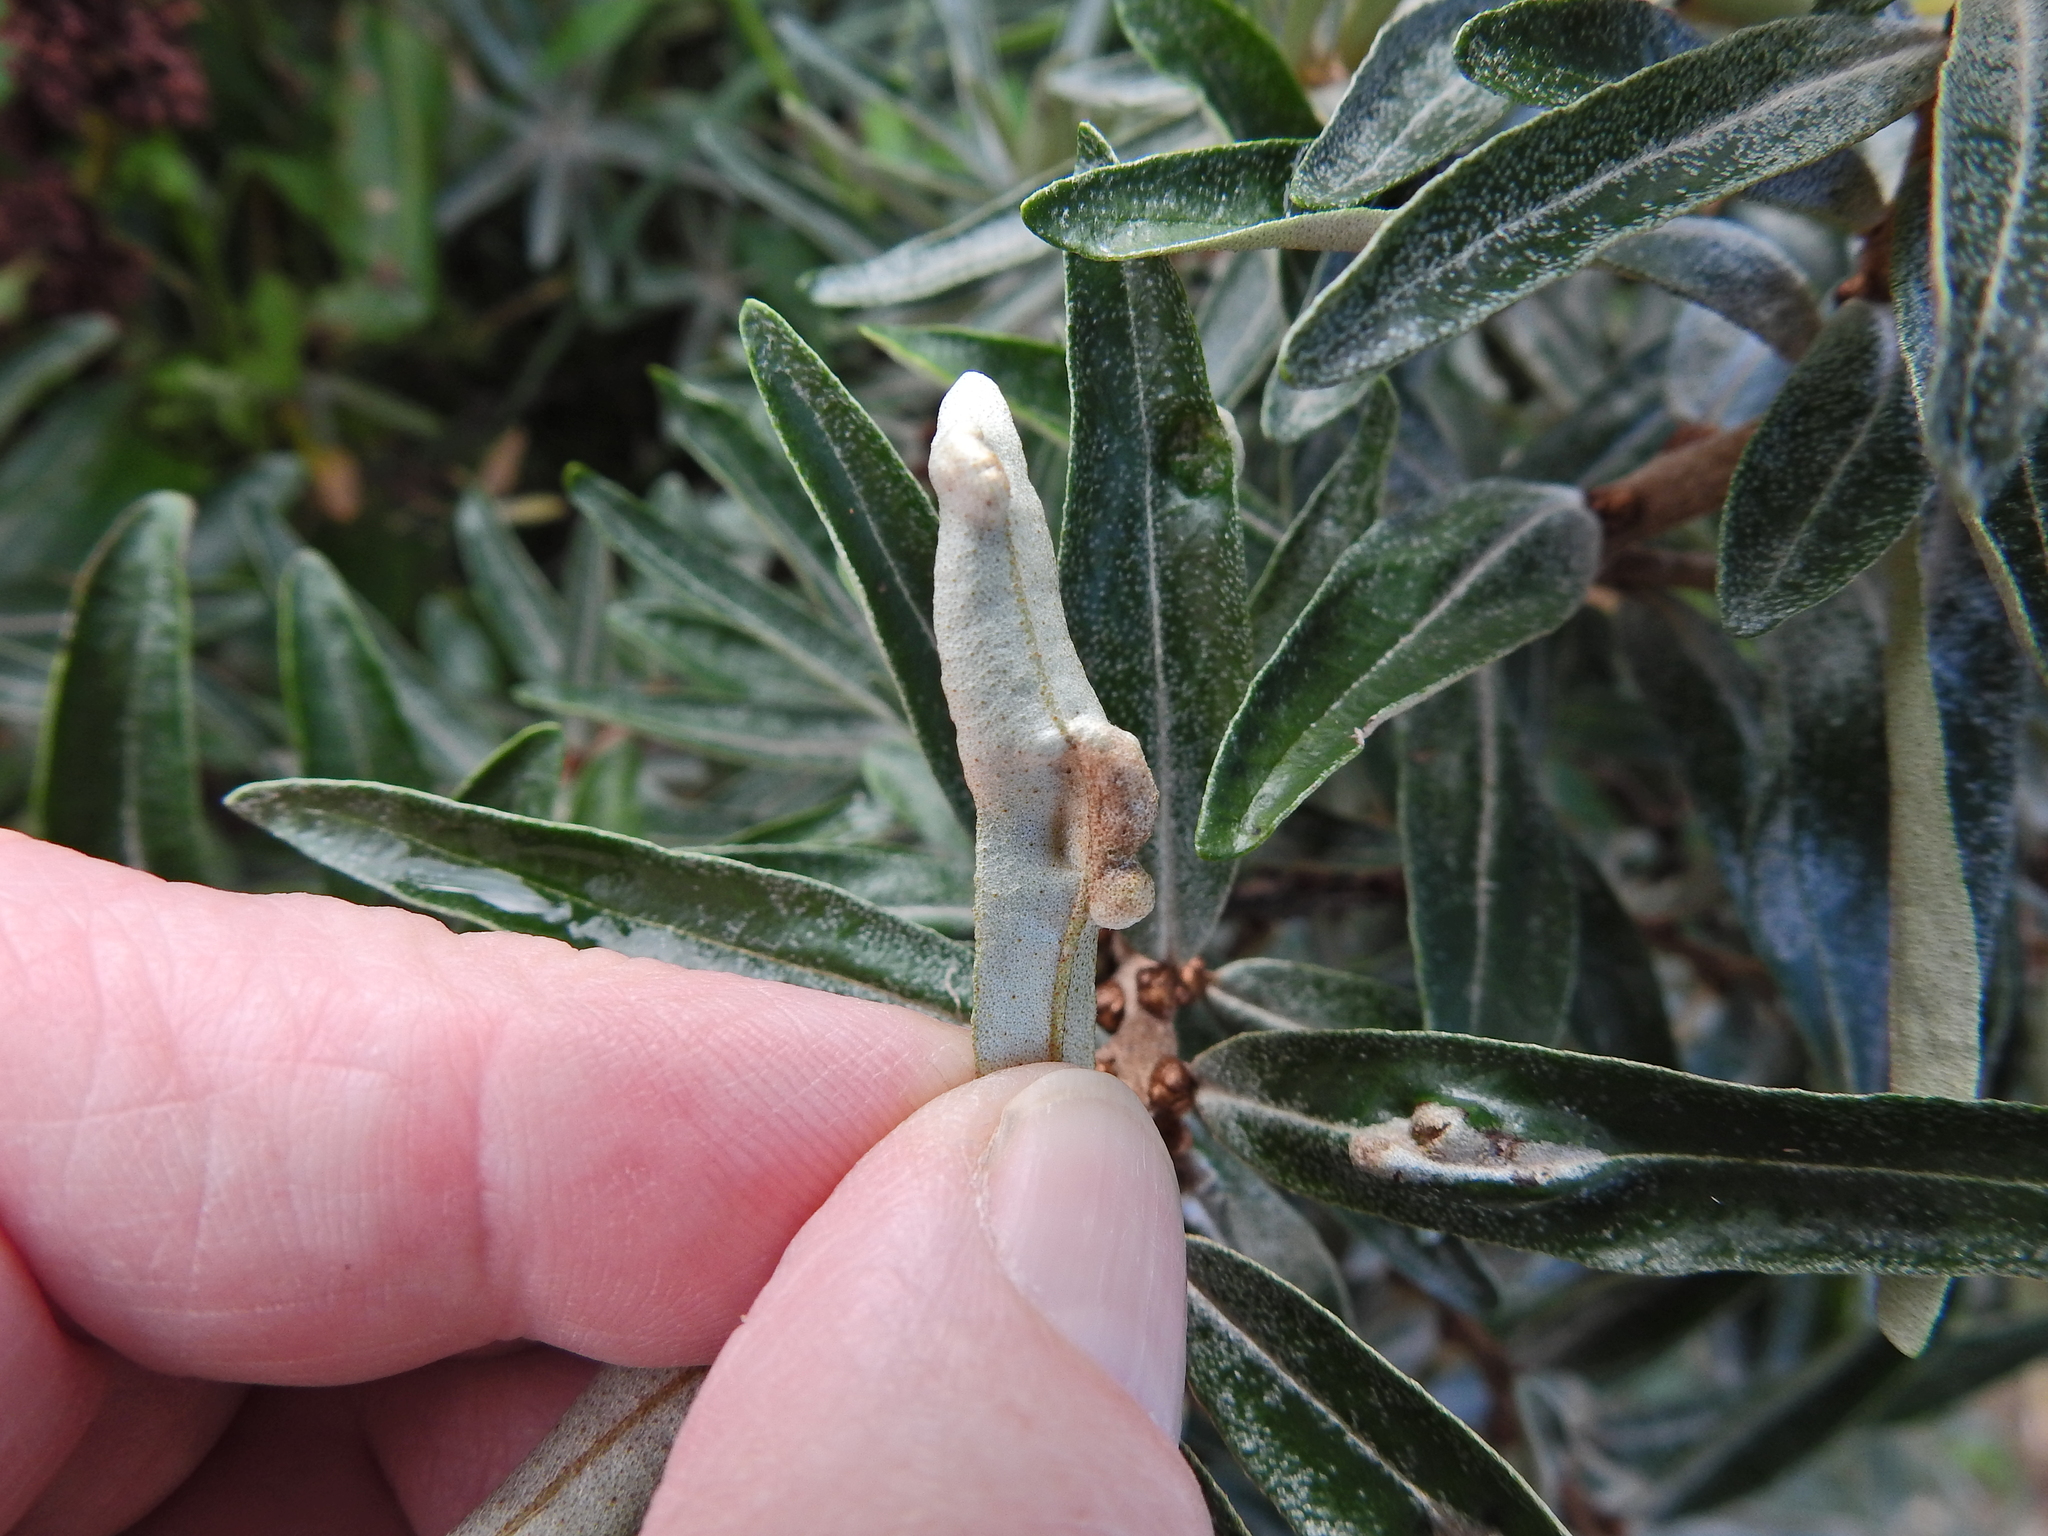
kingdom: Animalia
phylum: Arthropoda
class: Arachnida
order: Trombidiformes
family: Eriophyidae
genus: Aceria
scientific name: Aceria hippophaena
